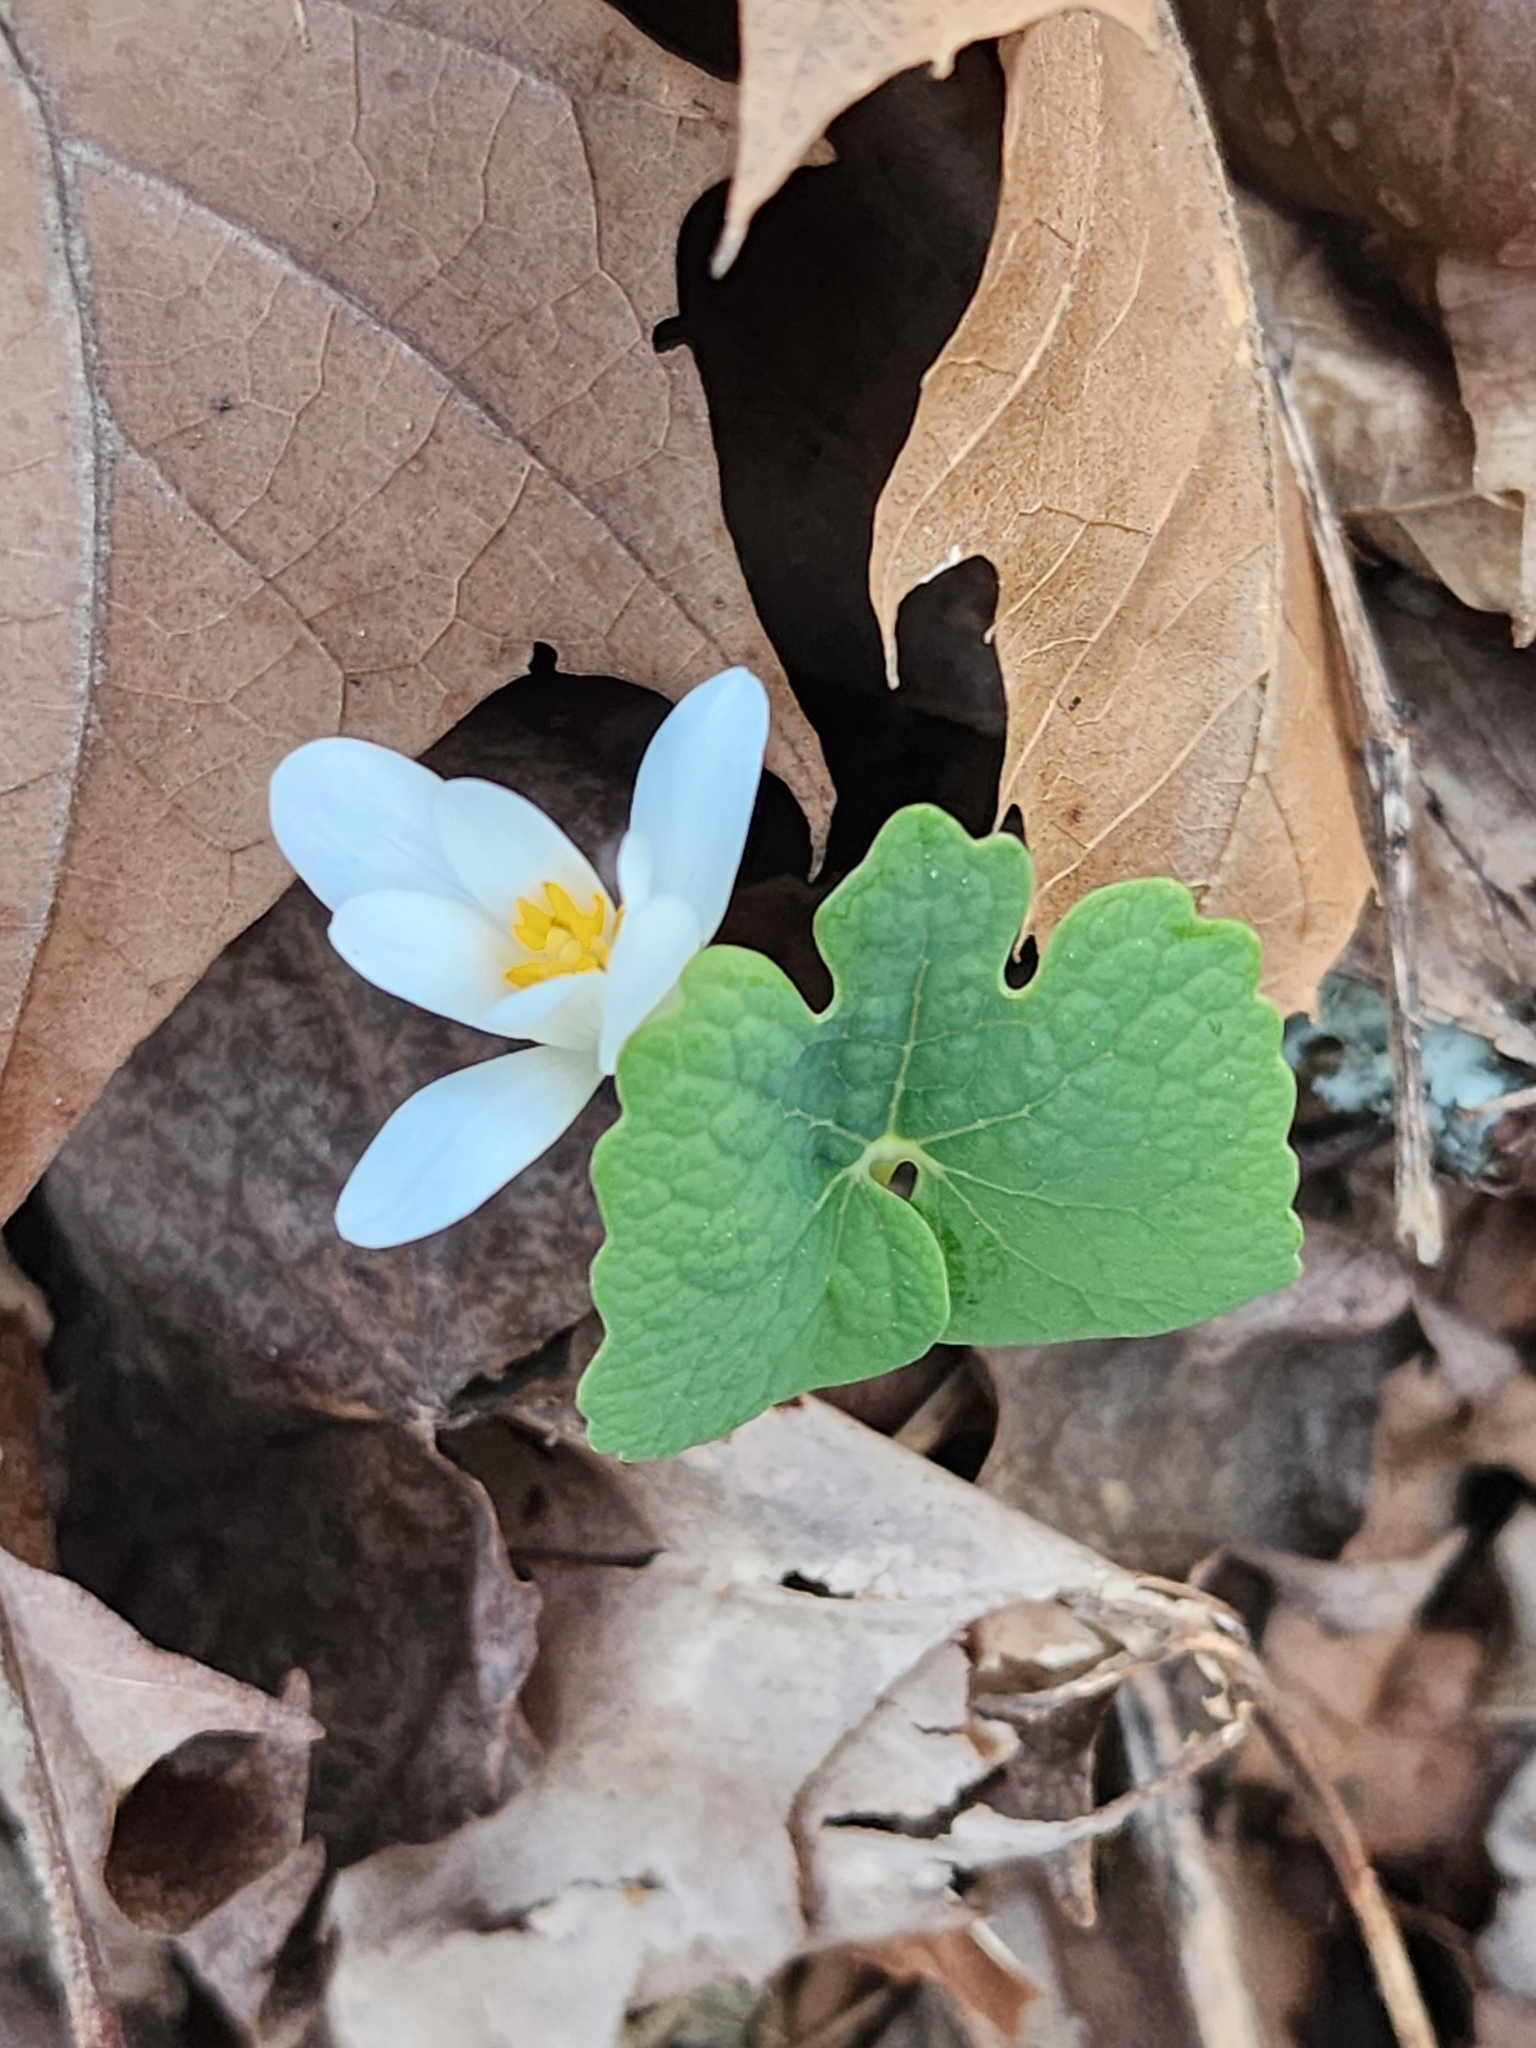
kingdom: Plantae
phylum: Tracheophyta
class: Magnoliopsida
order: Ranunculales
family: Papaveraceae
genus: Sanguinaria
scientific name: Sanguinaria canadensis
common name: Bloodroot
